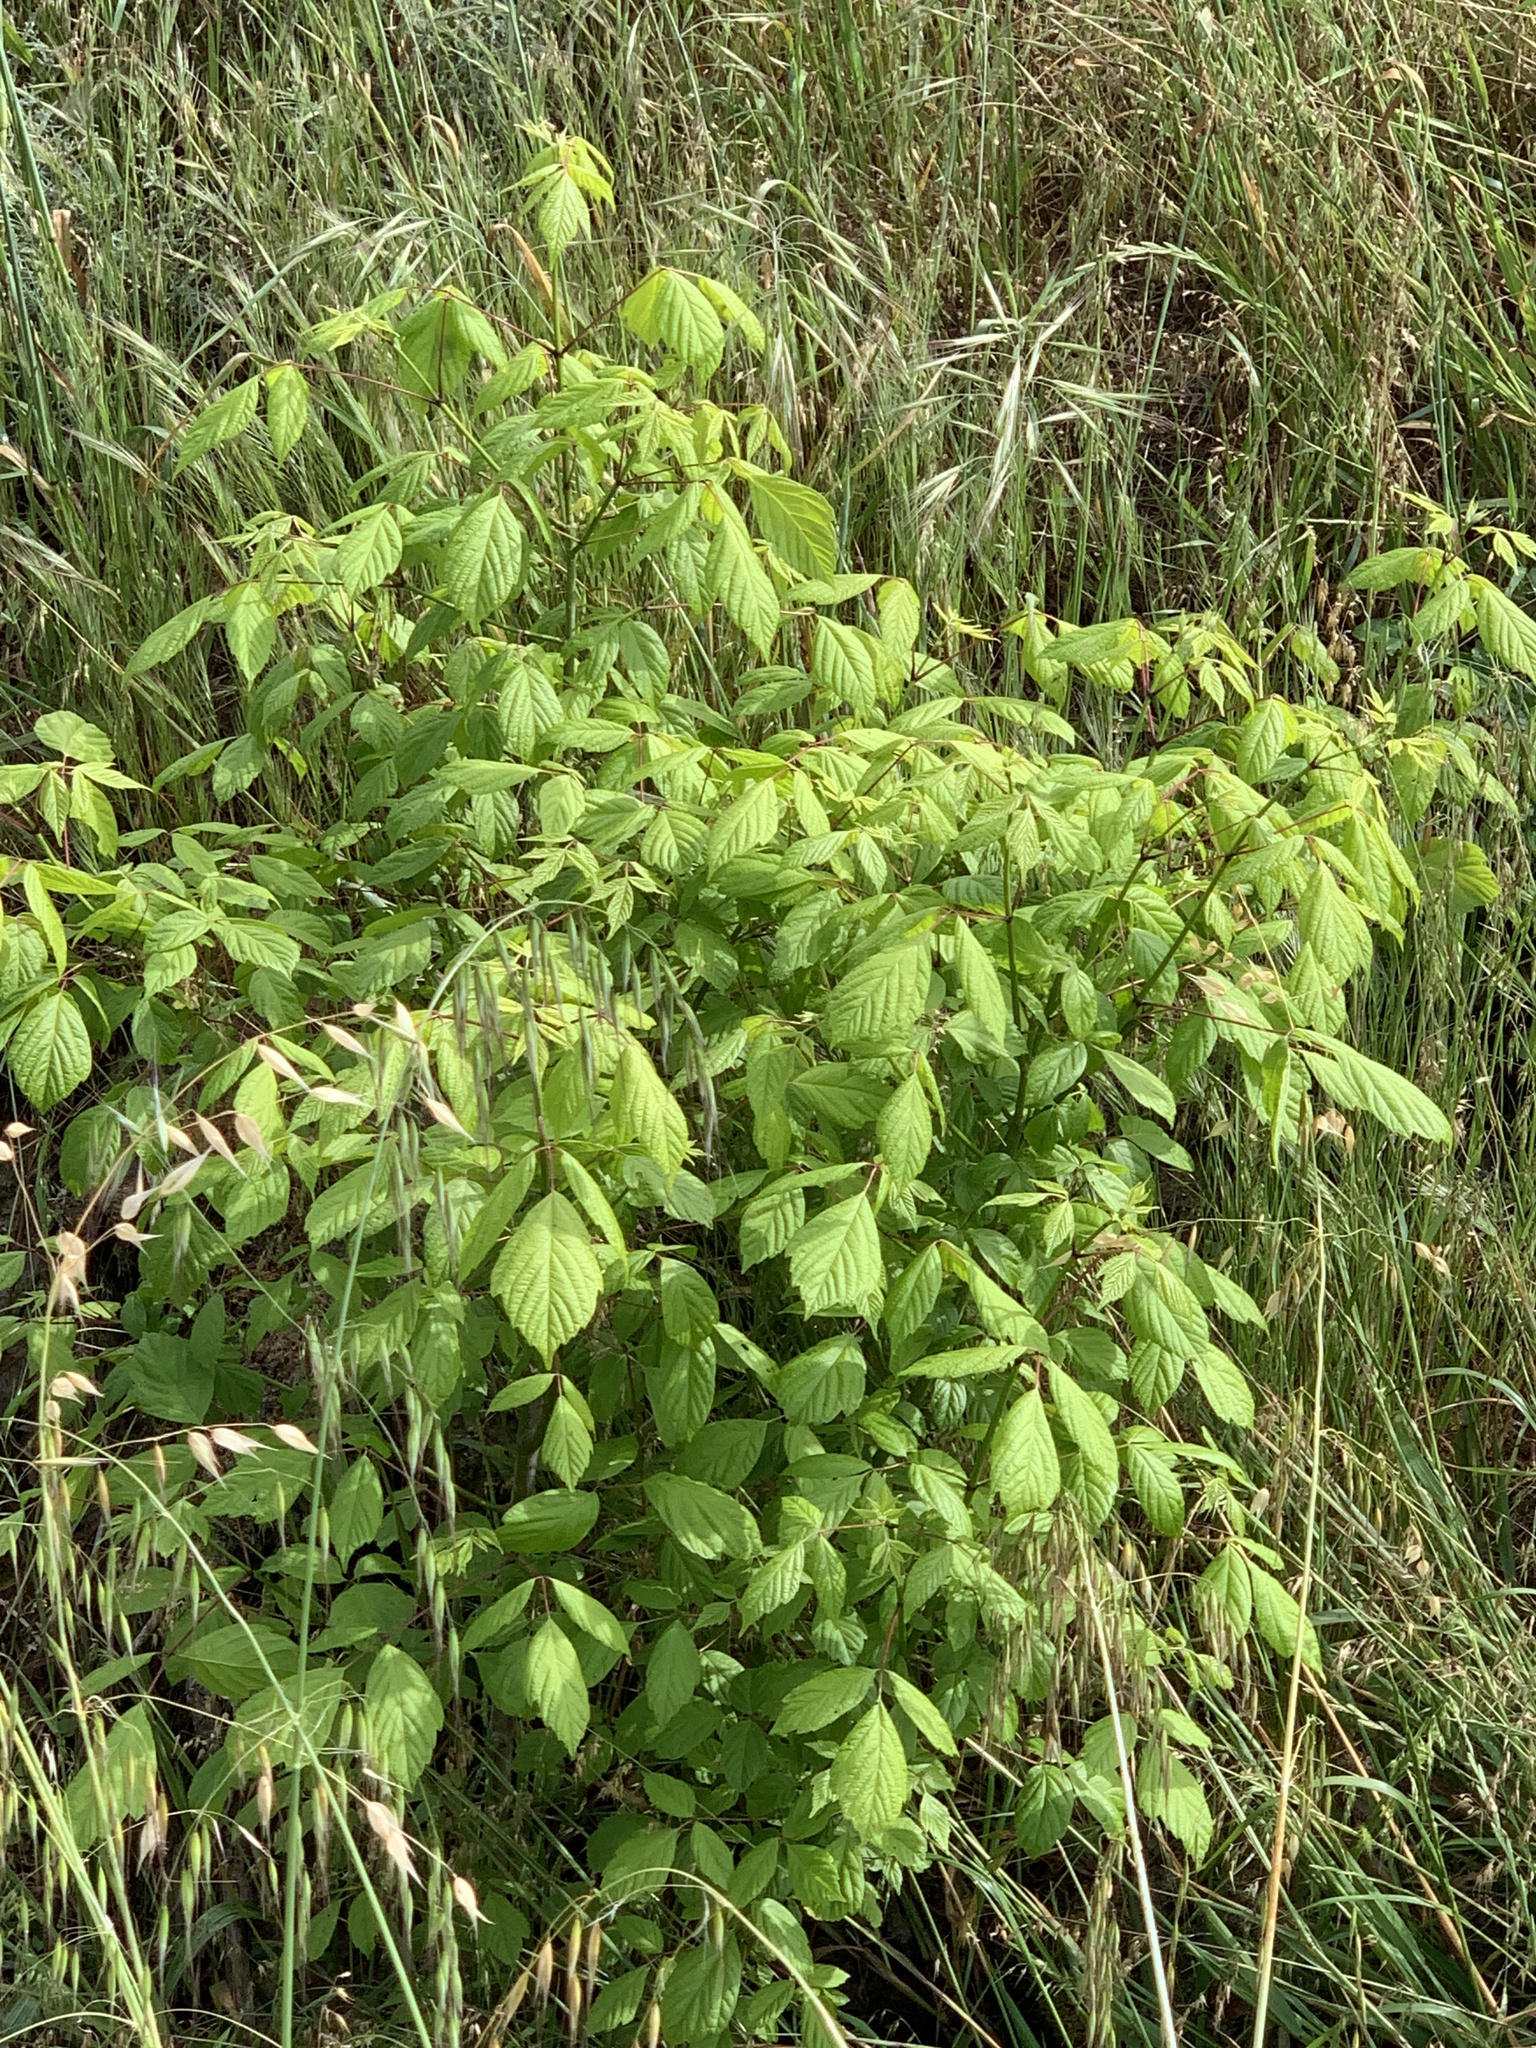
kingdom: Plantae
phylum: Tracheophyta
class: Magnoliopsida
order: Sapindales
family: Sapindaceae
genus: Acer
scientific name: Acer negundo
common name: Ashleaf maple
